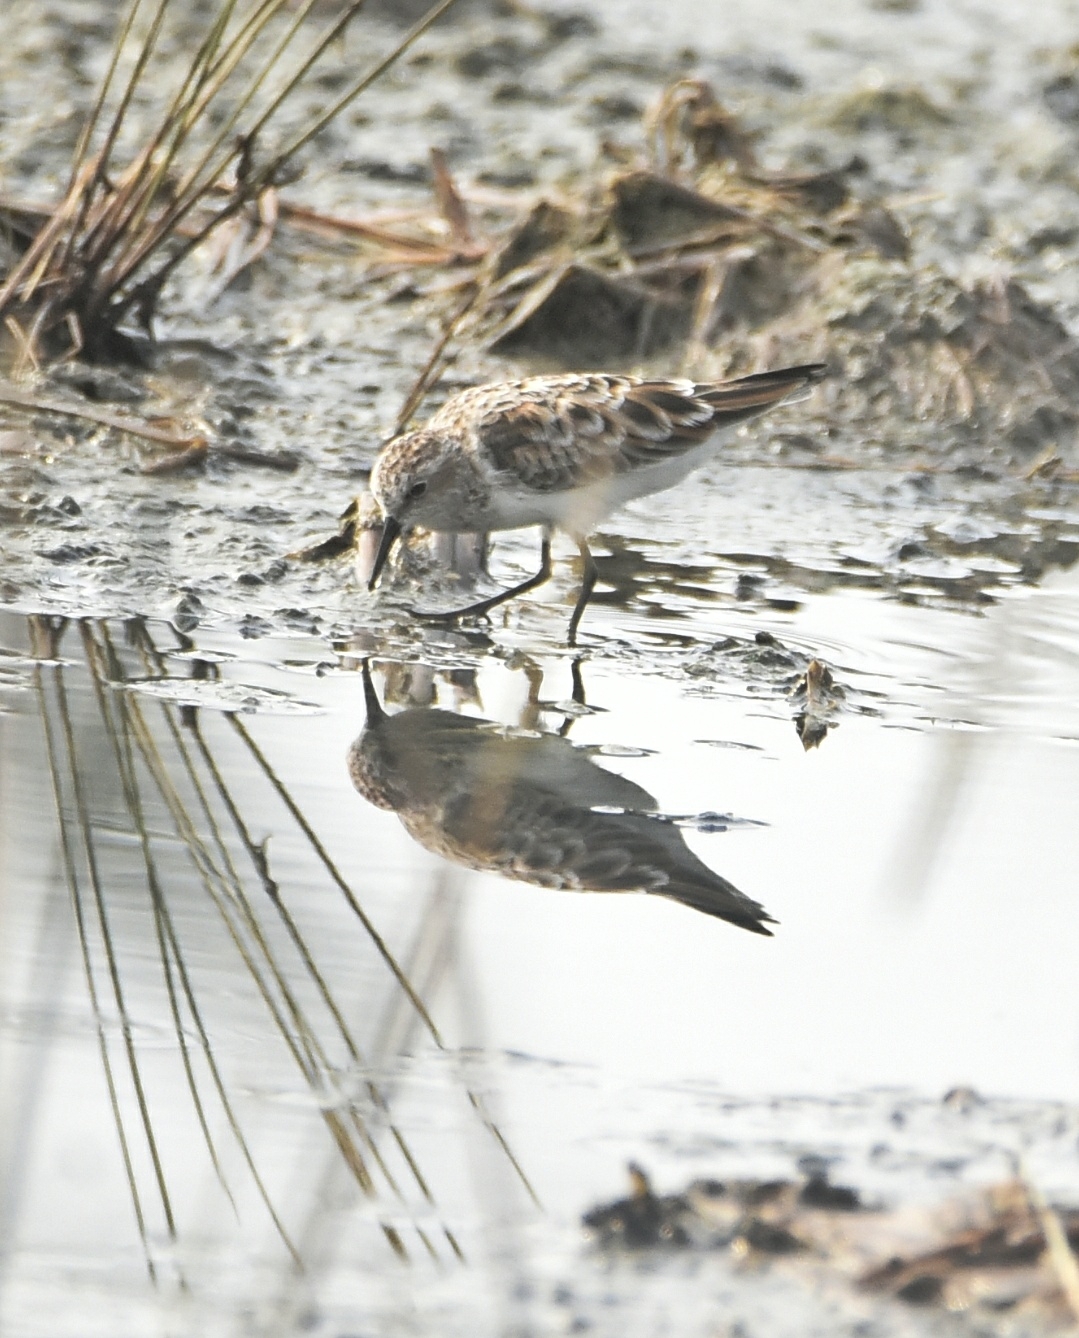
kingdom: Animalia
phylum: Chordata
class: Aves
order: Charadriiformes
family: Scolopacidae
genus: Calidris
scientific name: Calidris minuta
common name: Little stint
